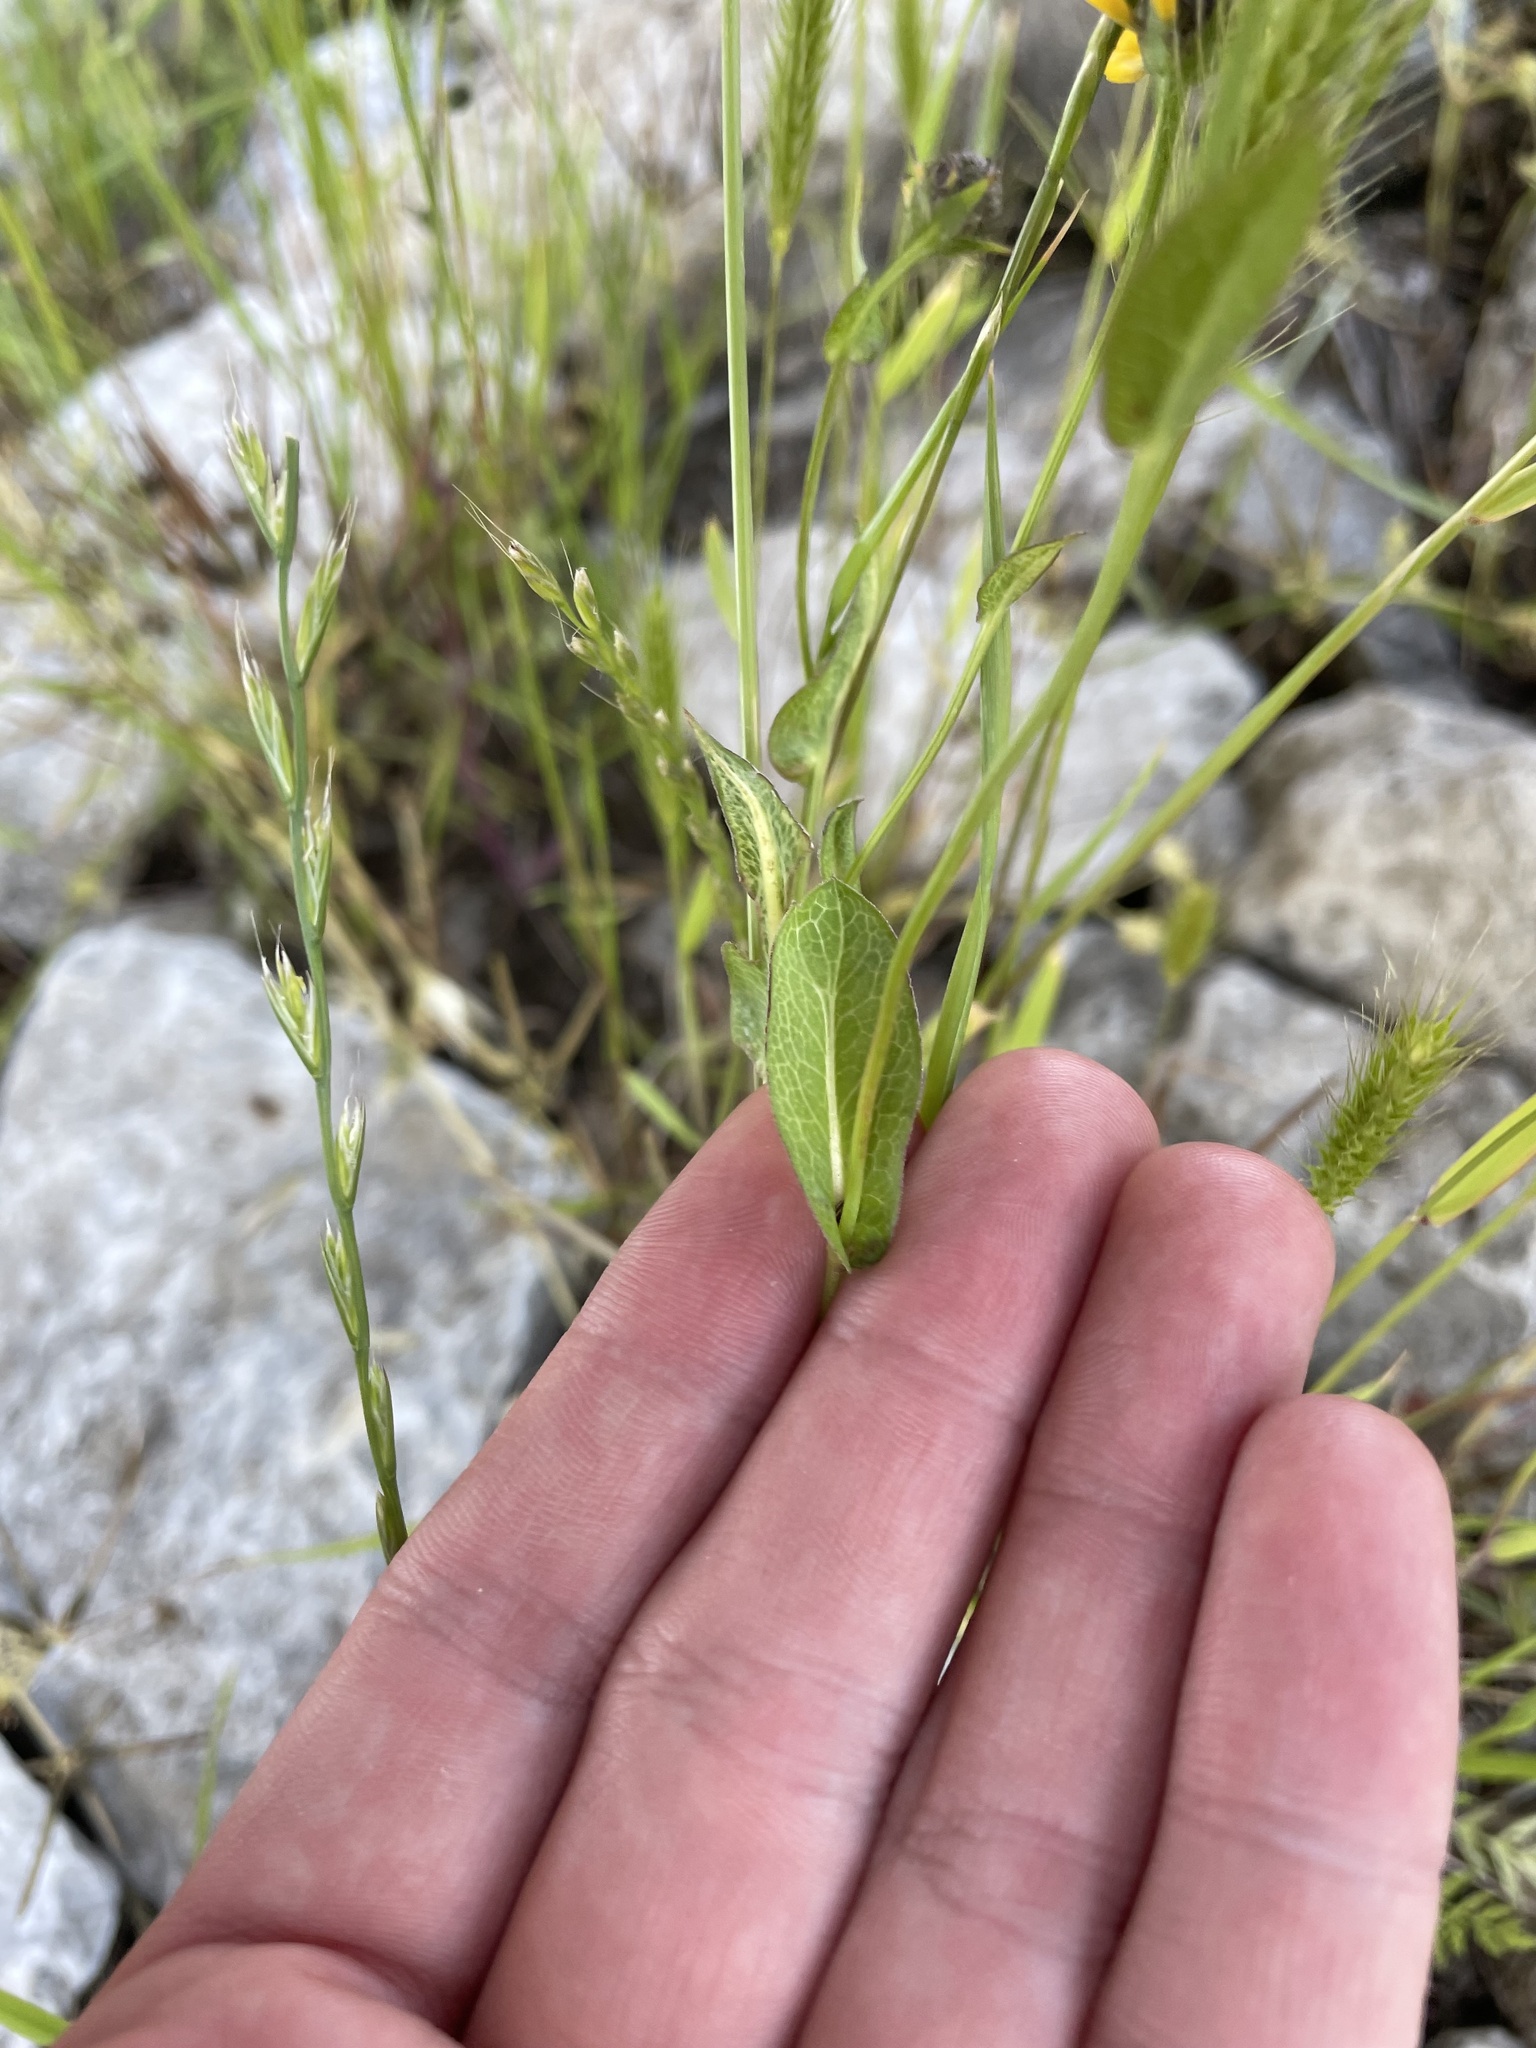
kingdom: Plantae
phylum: Tracheophyta
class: Magnoliopsida
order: Asterales
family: Asteraceae
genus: Rudbeckia
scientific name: Rudbeckia amplexicaulis
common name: Clasping-leaf coneflower
